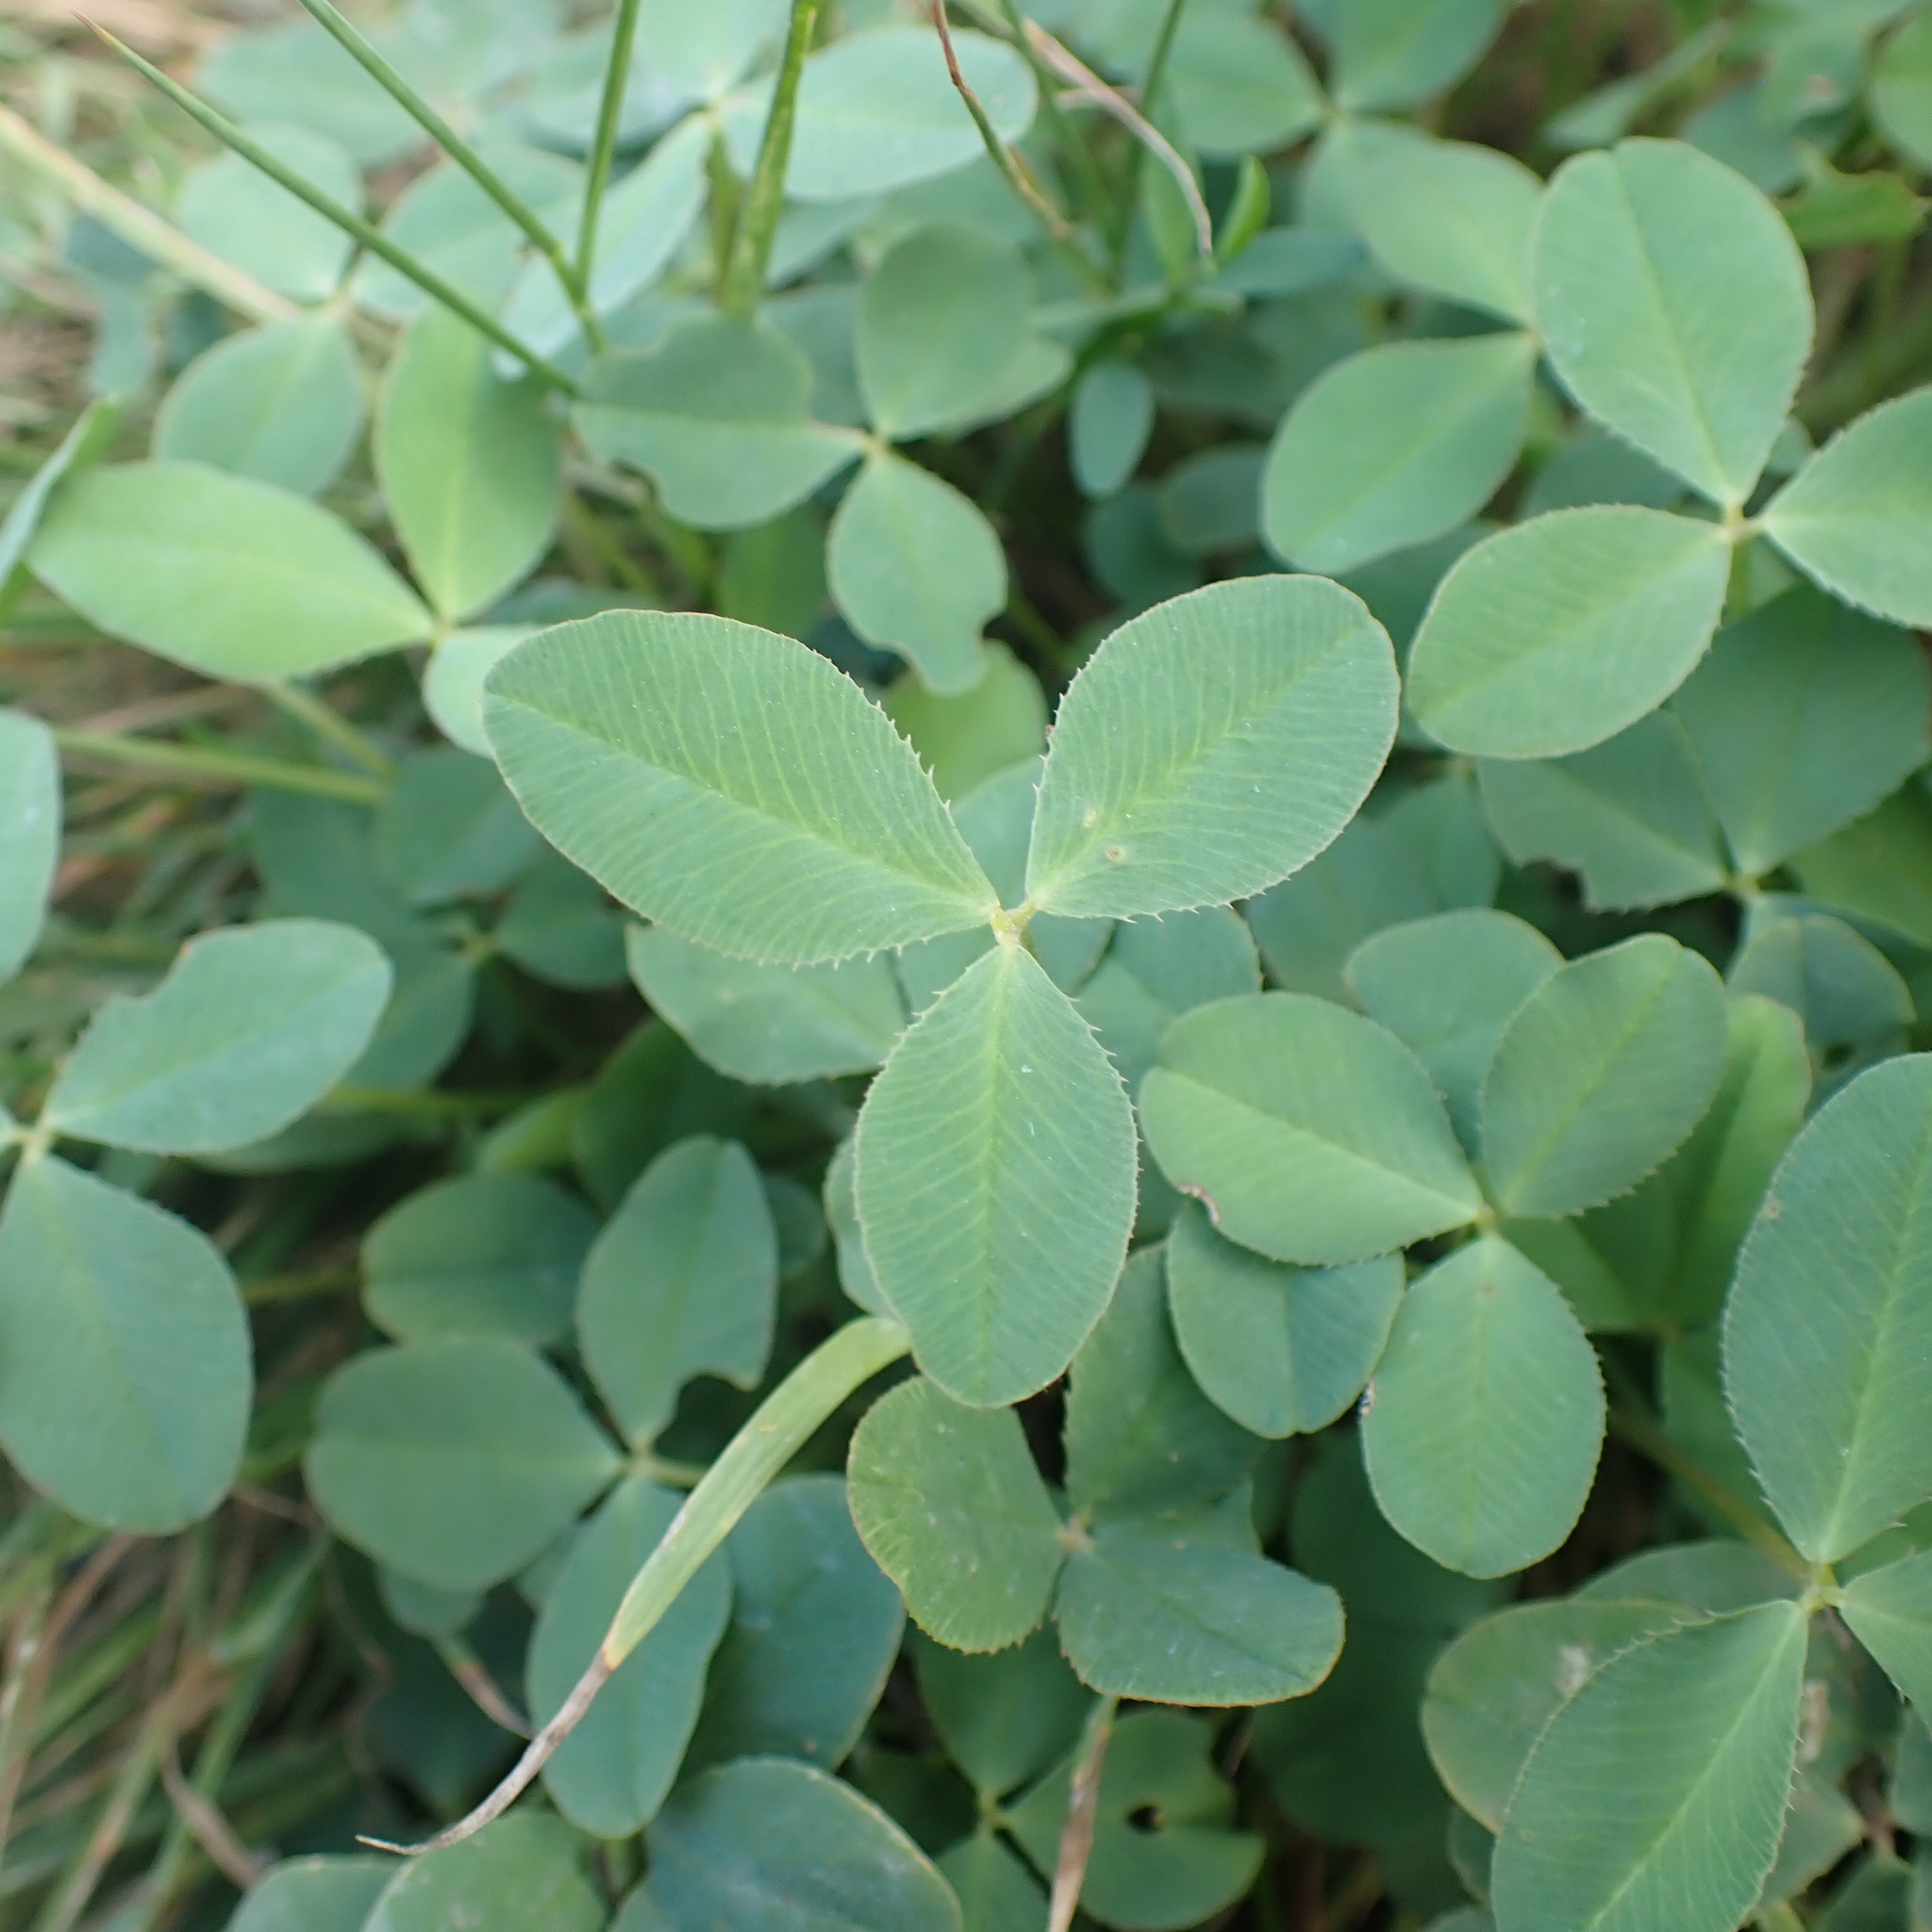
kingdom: Plantae
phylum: Tracheophyta
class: Magnoliopsida
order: Fabales
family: Fabaceae
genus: Trifolium
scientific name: Trifolium hybridum
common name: Alsike clover
